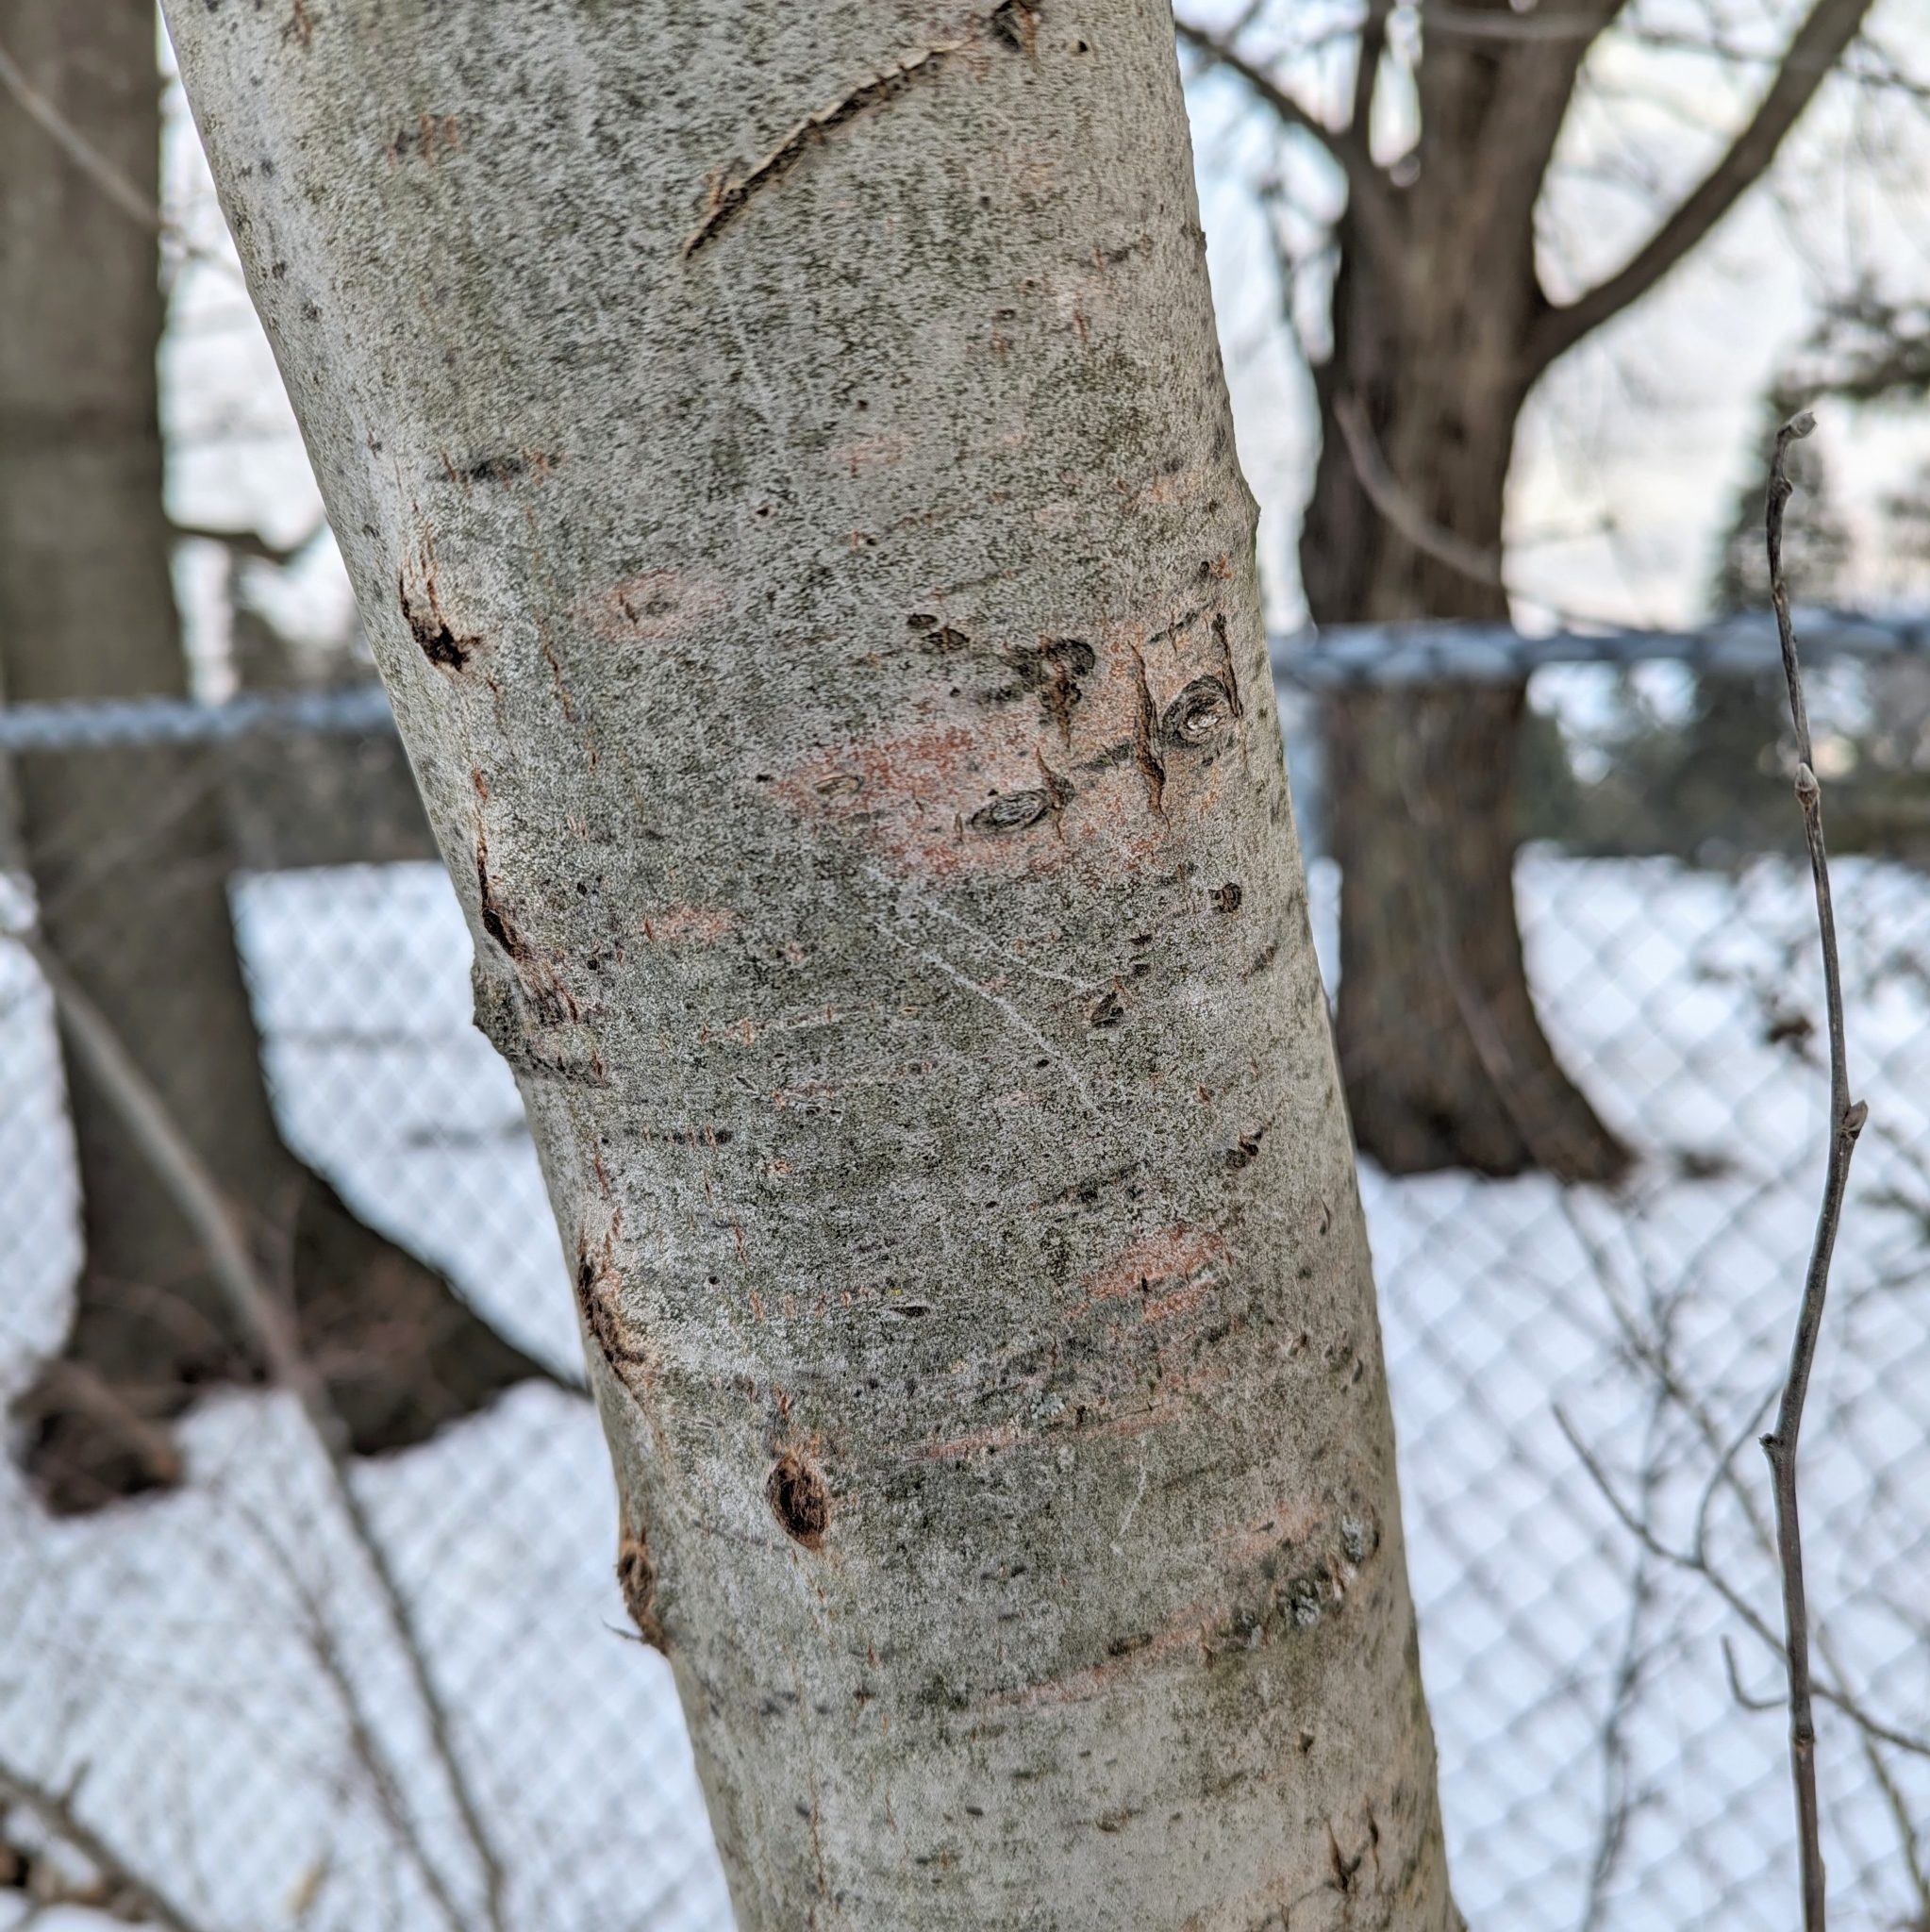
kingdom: Plantae
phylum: Tracheophyta
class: Magnoliopsida
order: Malpighiales
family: Salicaceae
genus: Populus
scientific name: Populus grandidentata
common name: Bigtooth aspen
